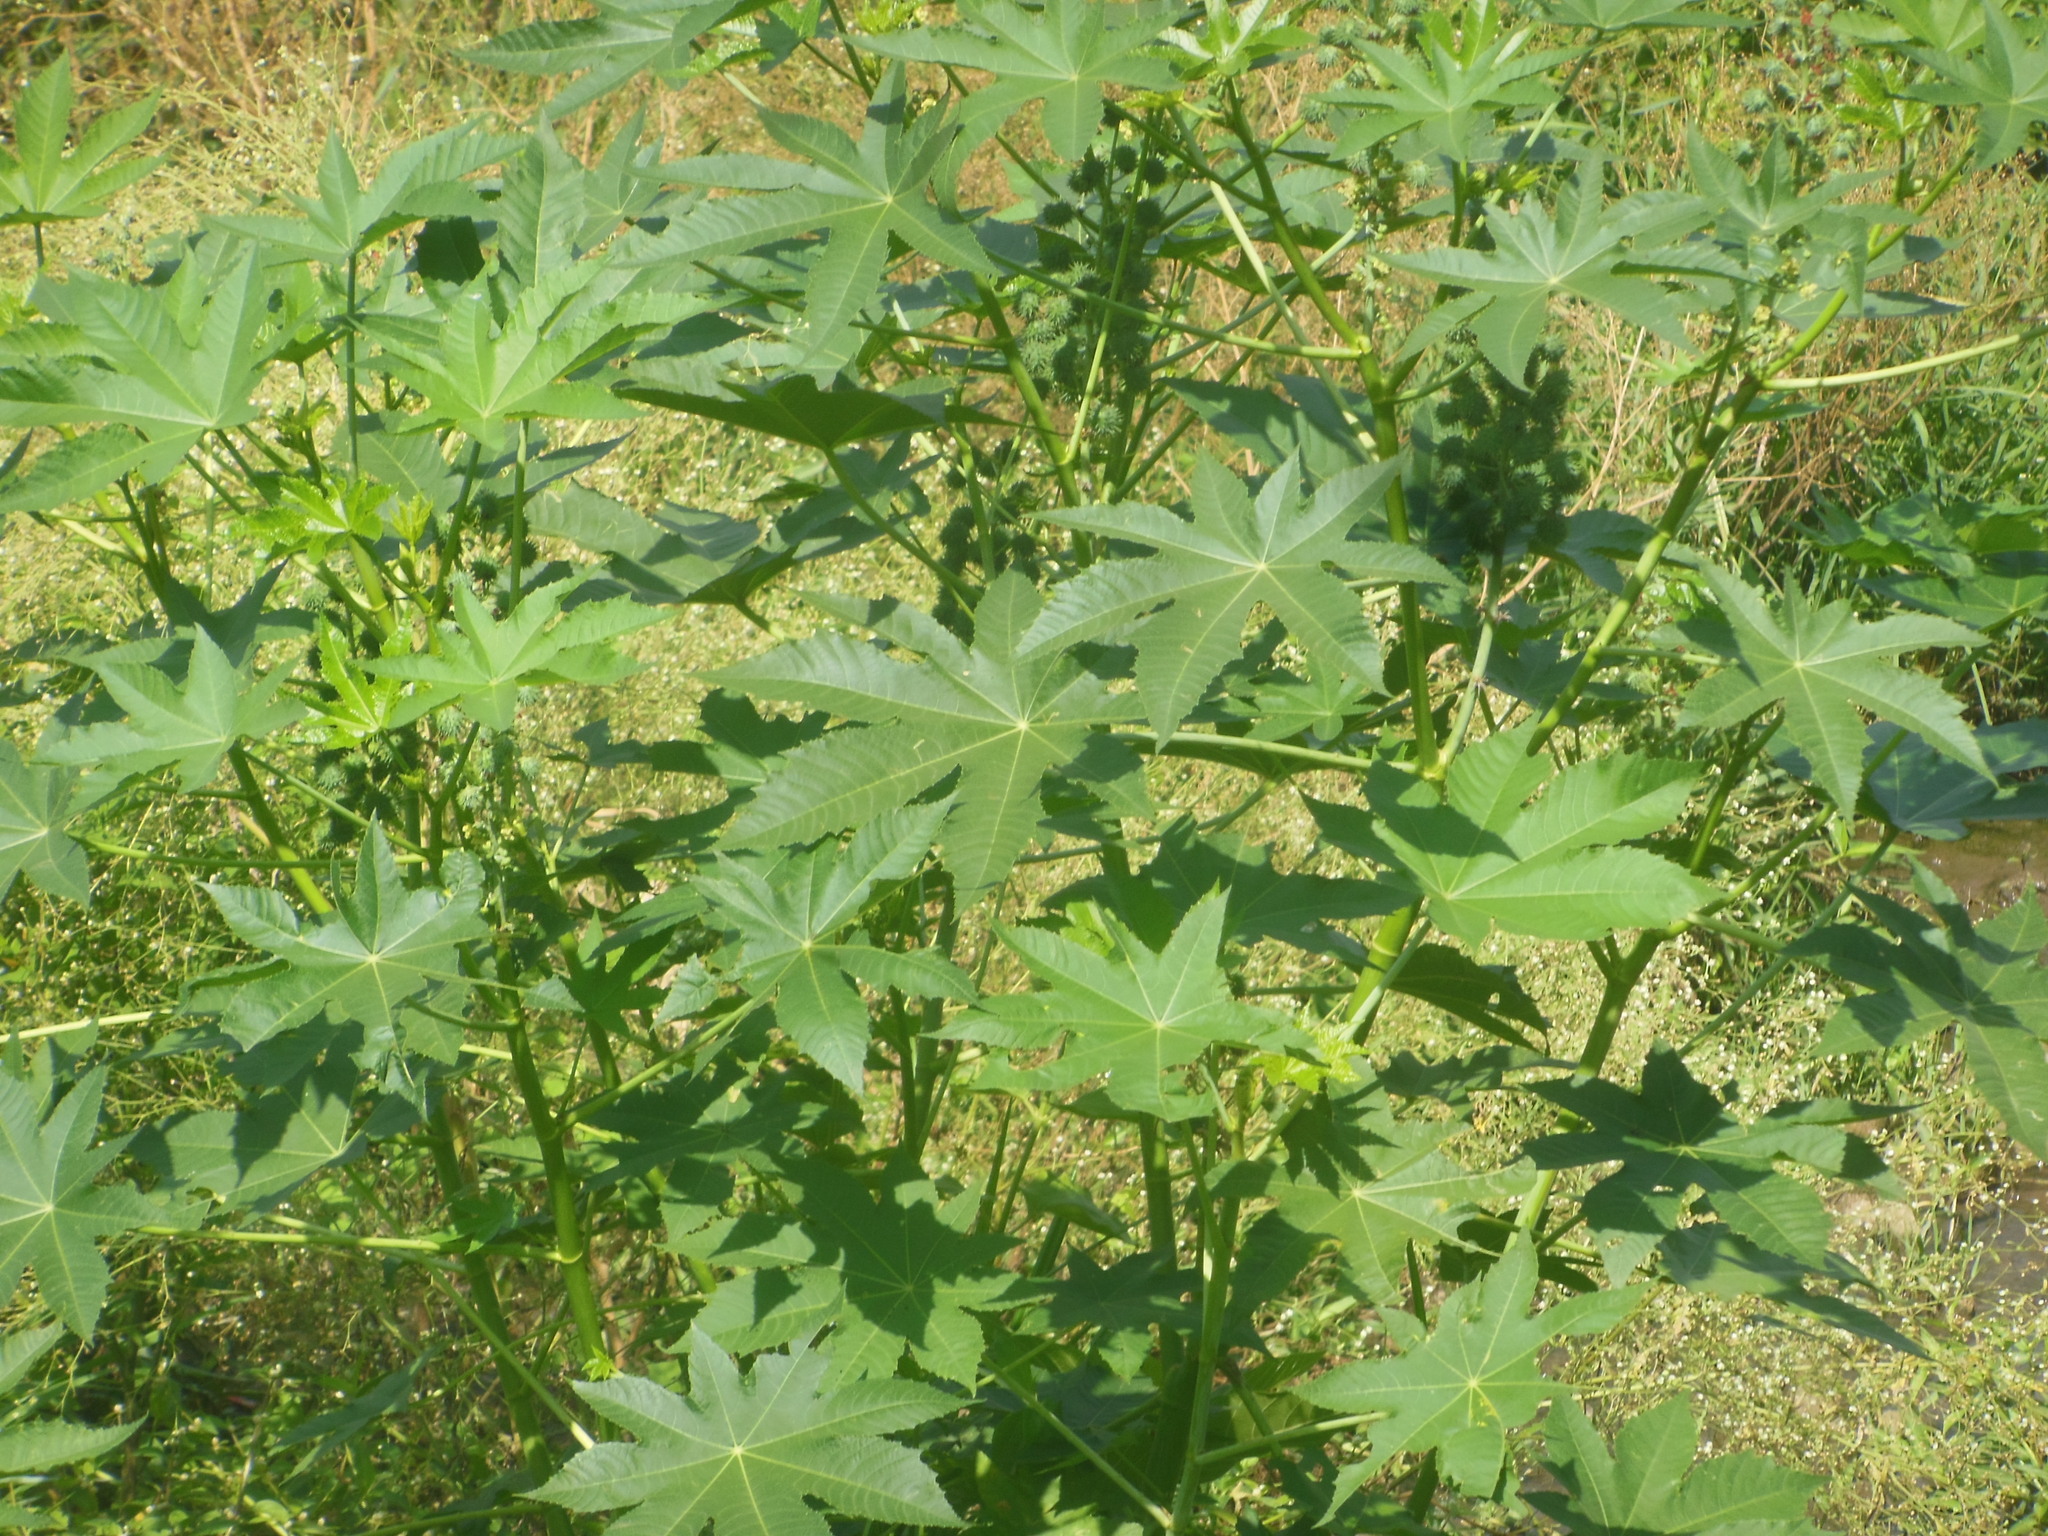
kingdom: Plantae
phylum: Tracheophyta
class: Magnoliopsida
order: Malpighiales
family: Euphorbiaceae
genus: Ricinus
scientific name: Ricinus communis
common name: Castor-oil-plant
